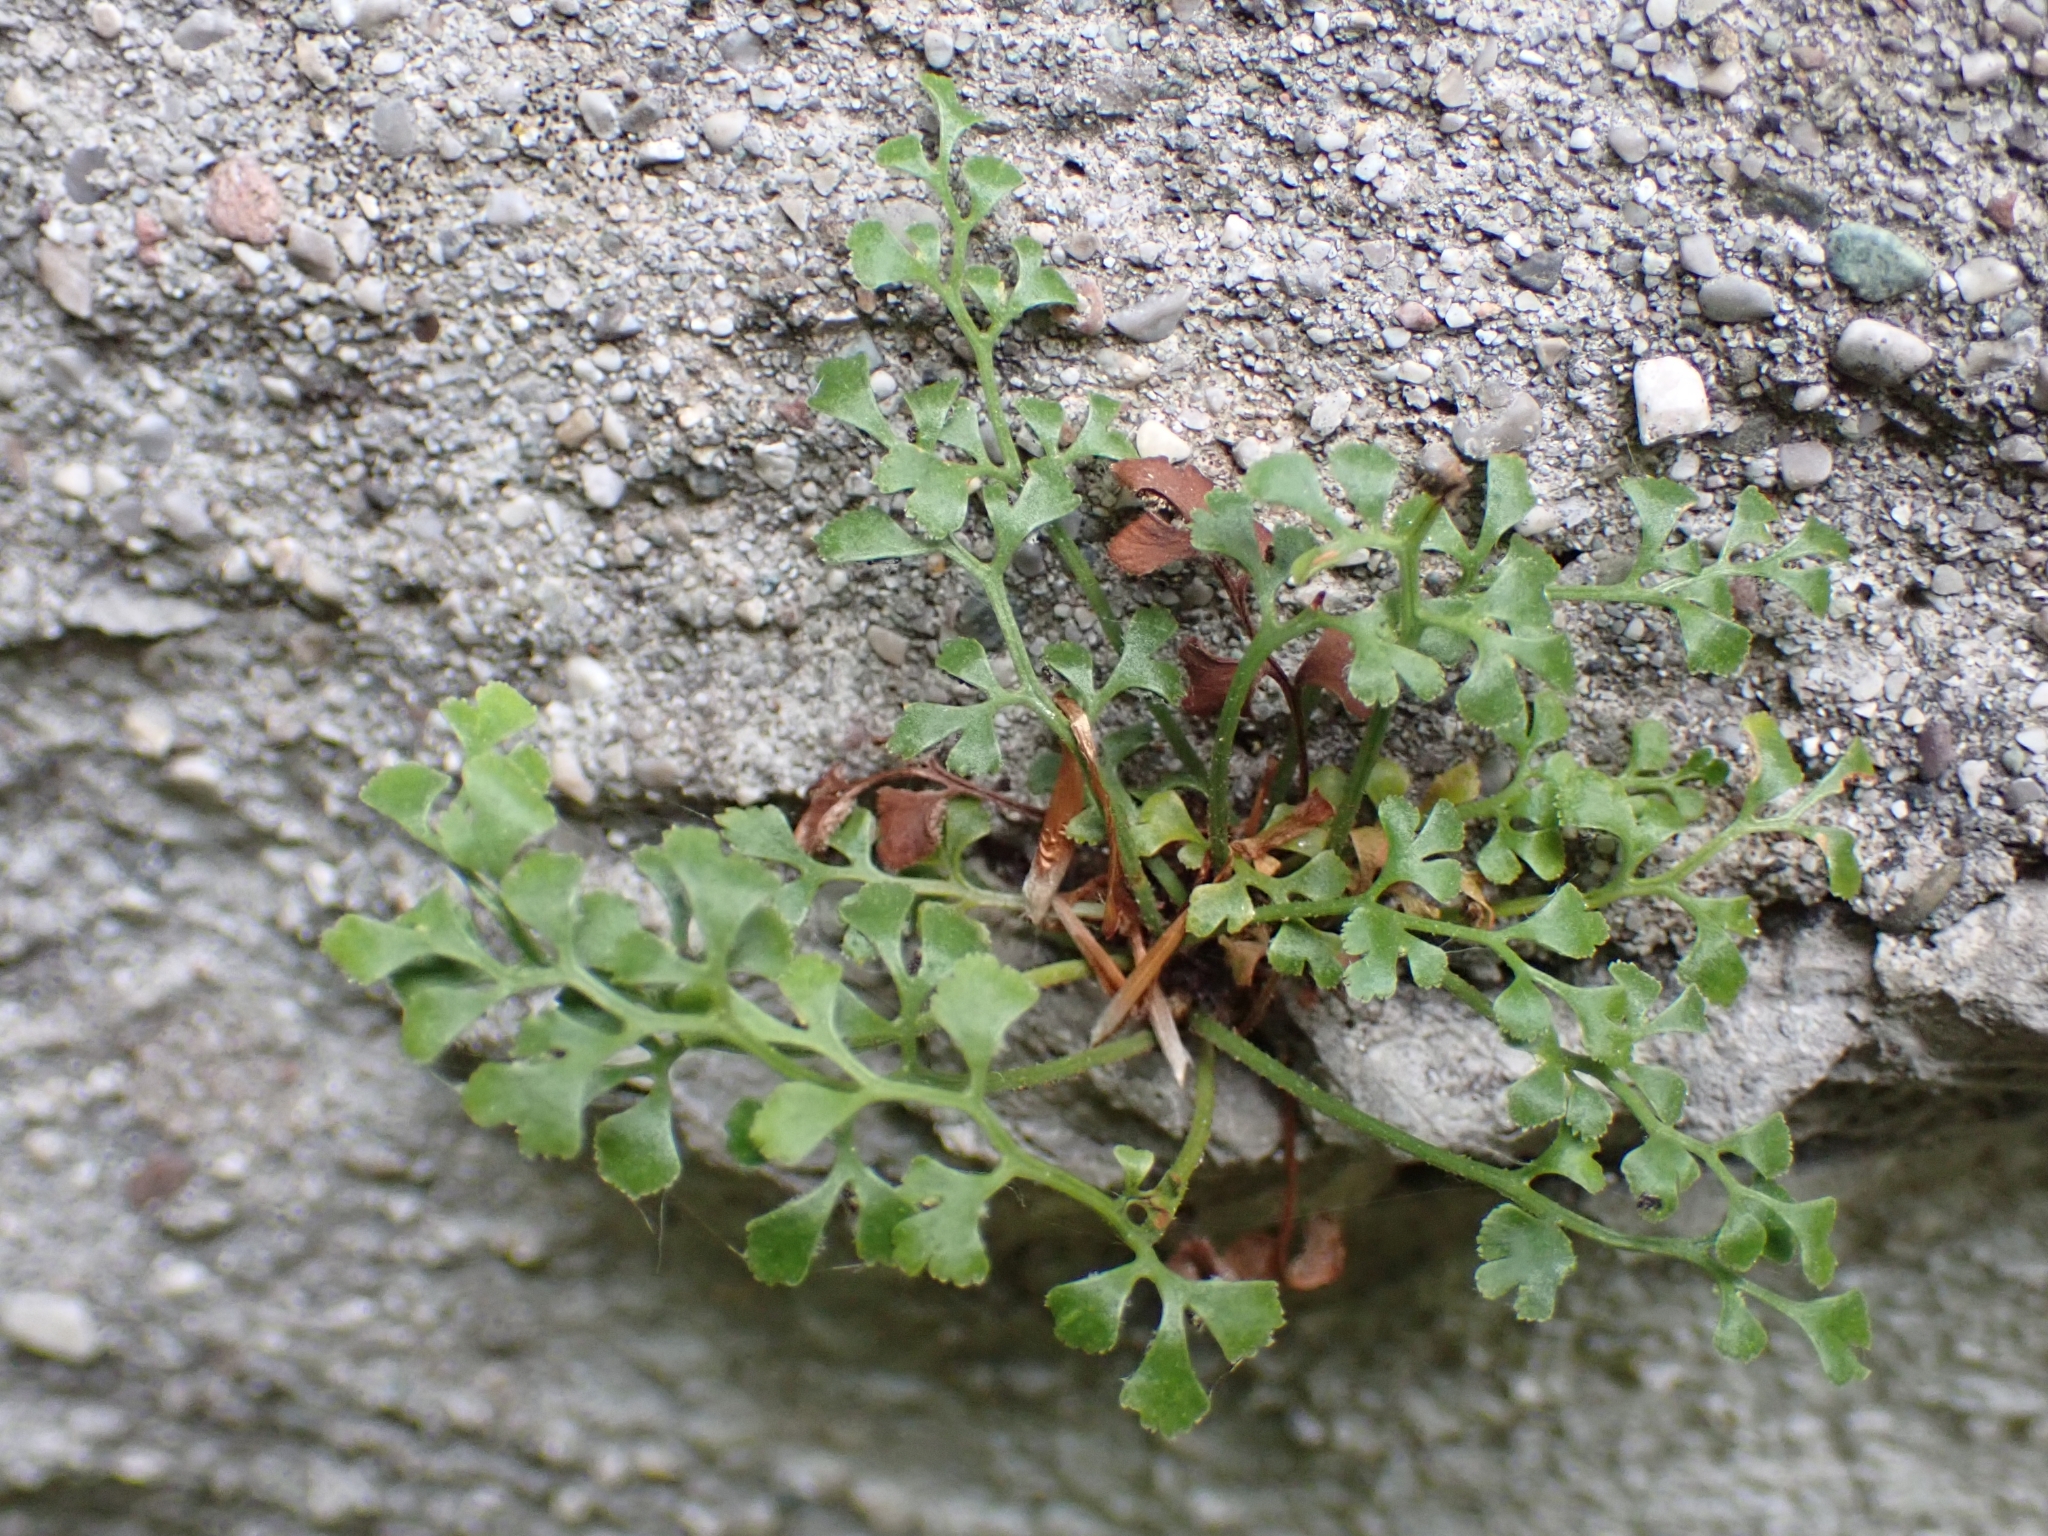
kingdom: Plantae
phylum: Tracheophyta
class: Polypodiopsida
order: Polypodiales
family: Aspleniaceae
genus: Asplenium
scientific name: Asplenium ruta-muraria
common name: Wall-rue
